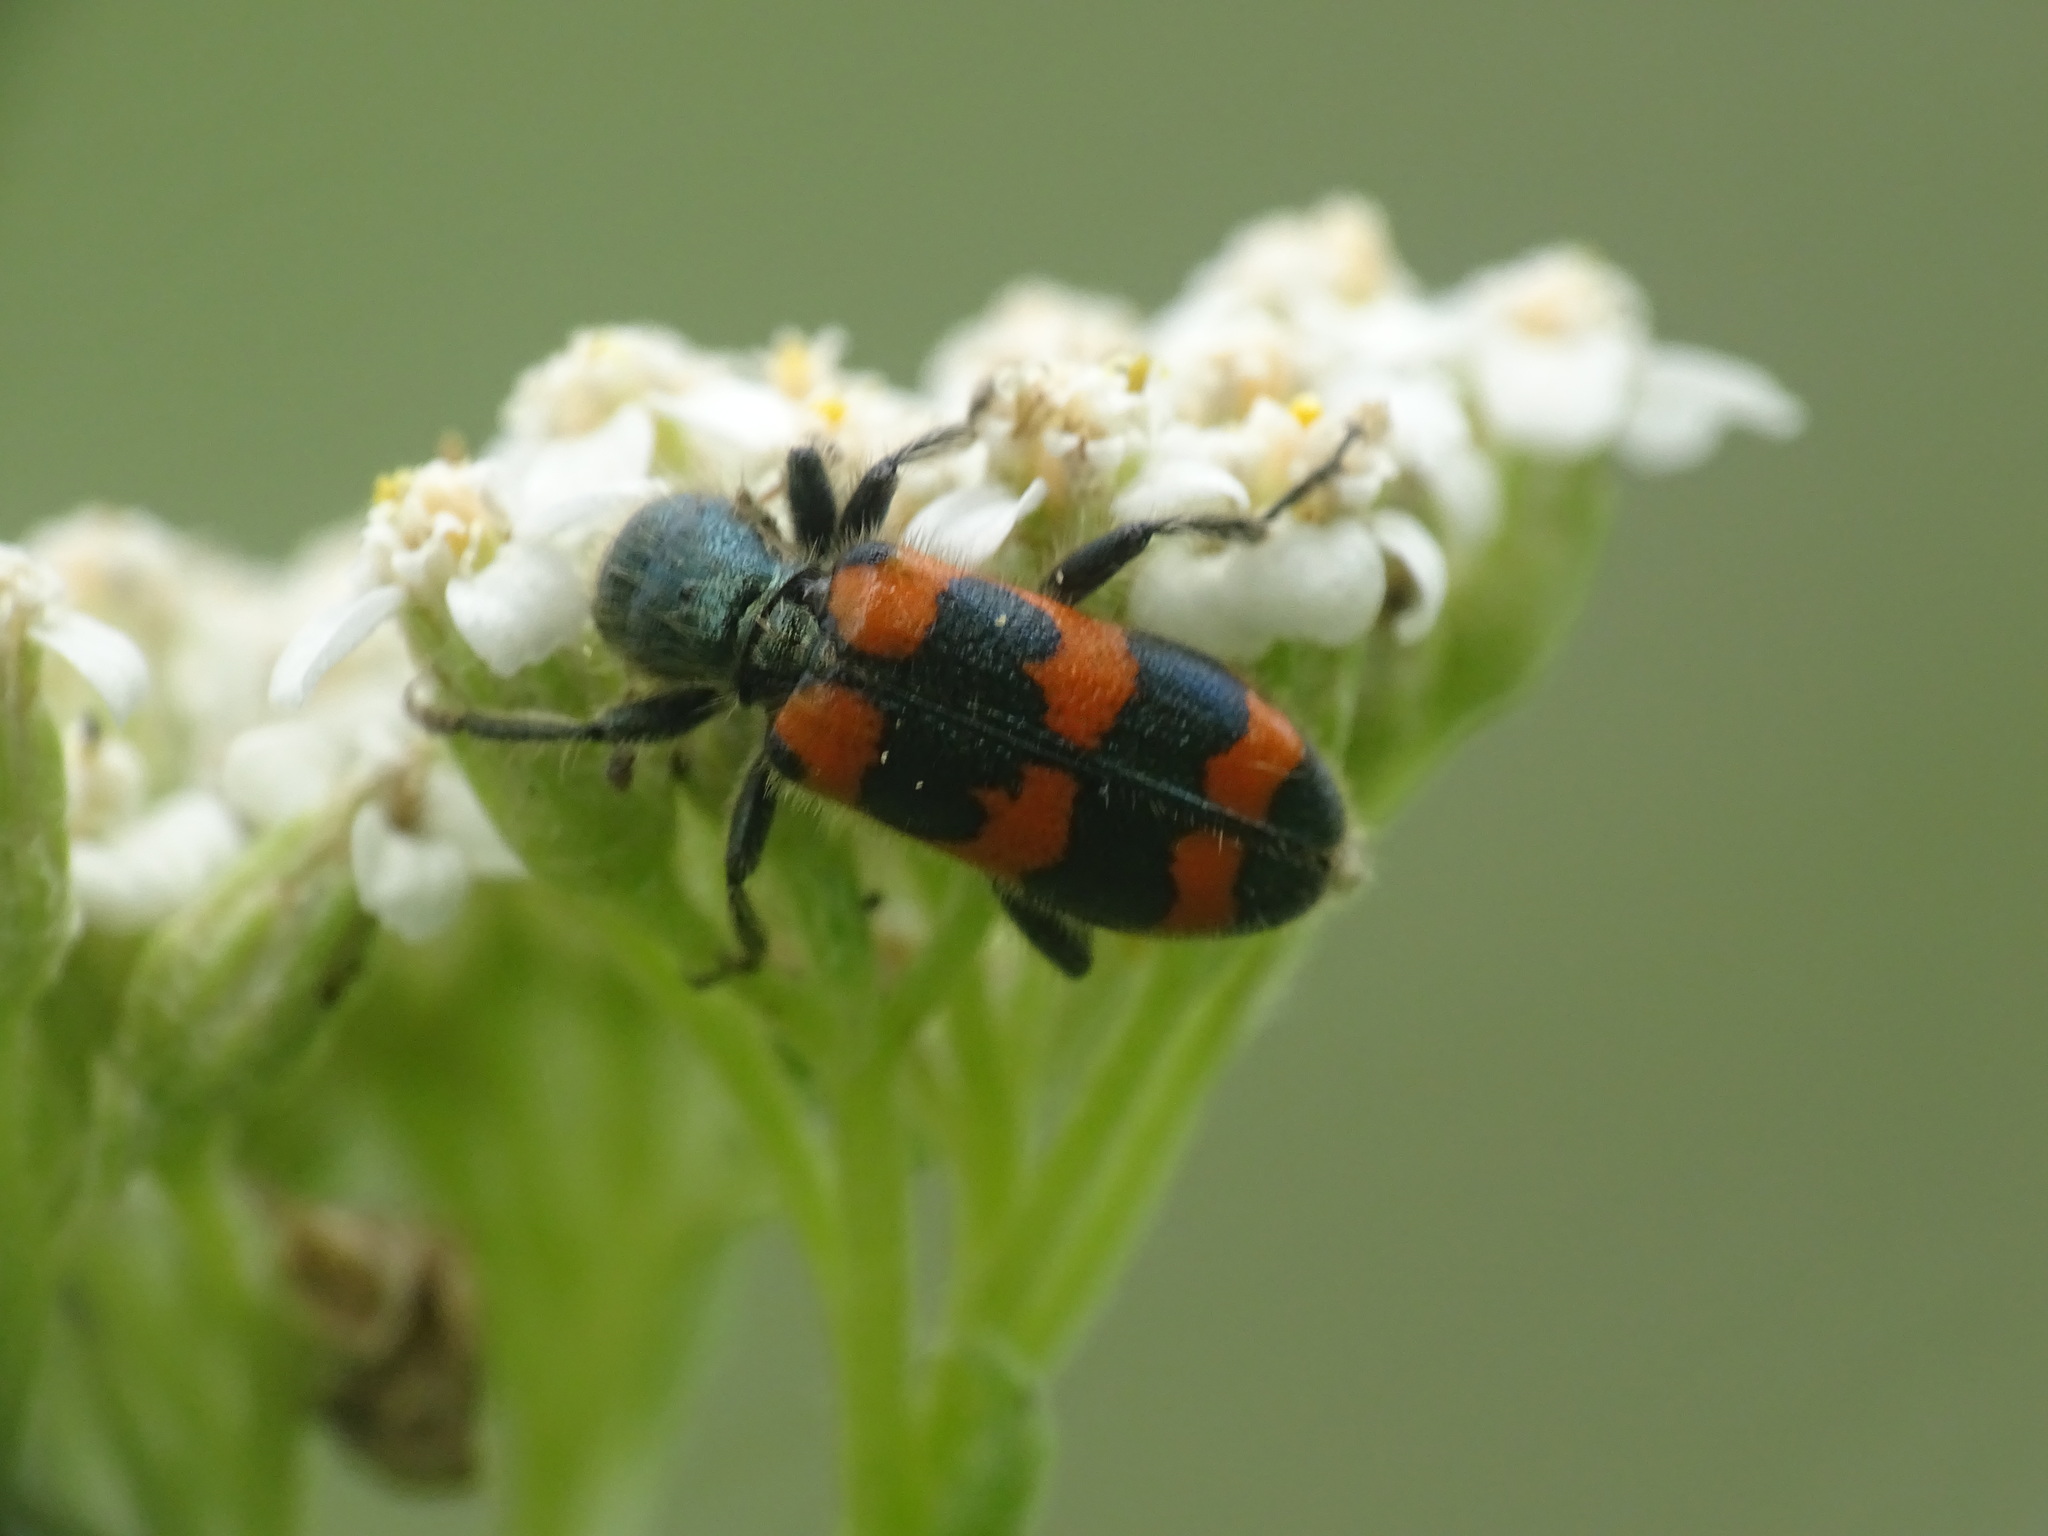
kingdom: Animalia
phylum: Arthropoda
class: Insecta
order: Coleoptera
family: Cleridae
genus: Trichodes
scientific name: Trichodes nutalli
